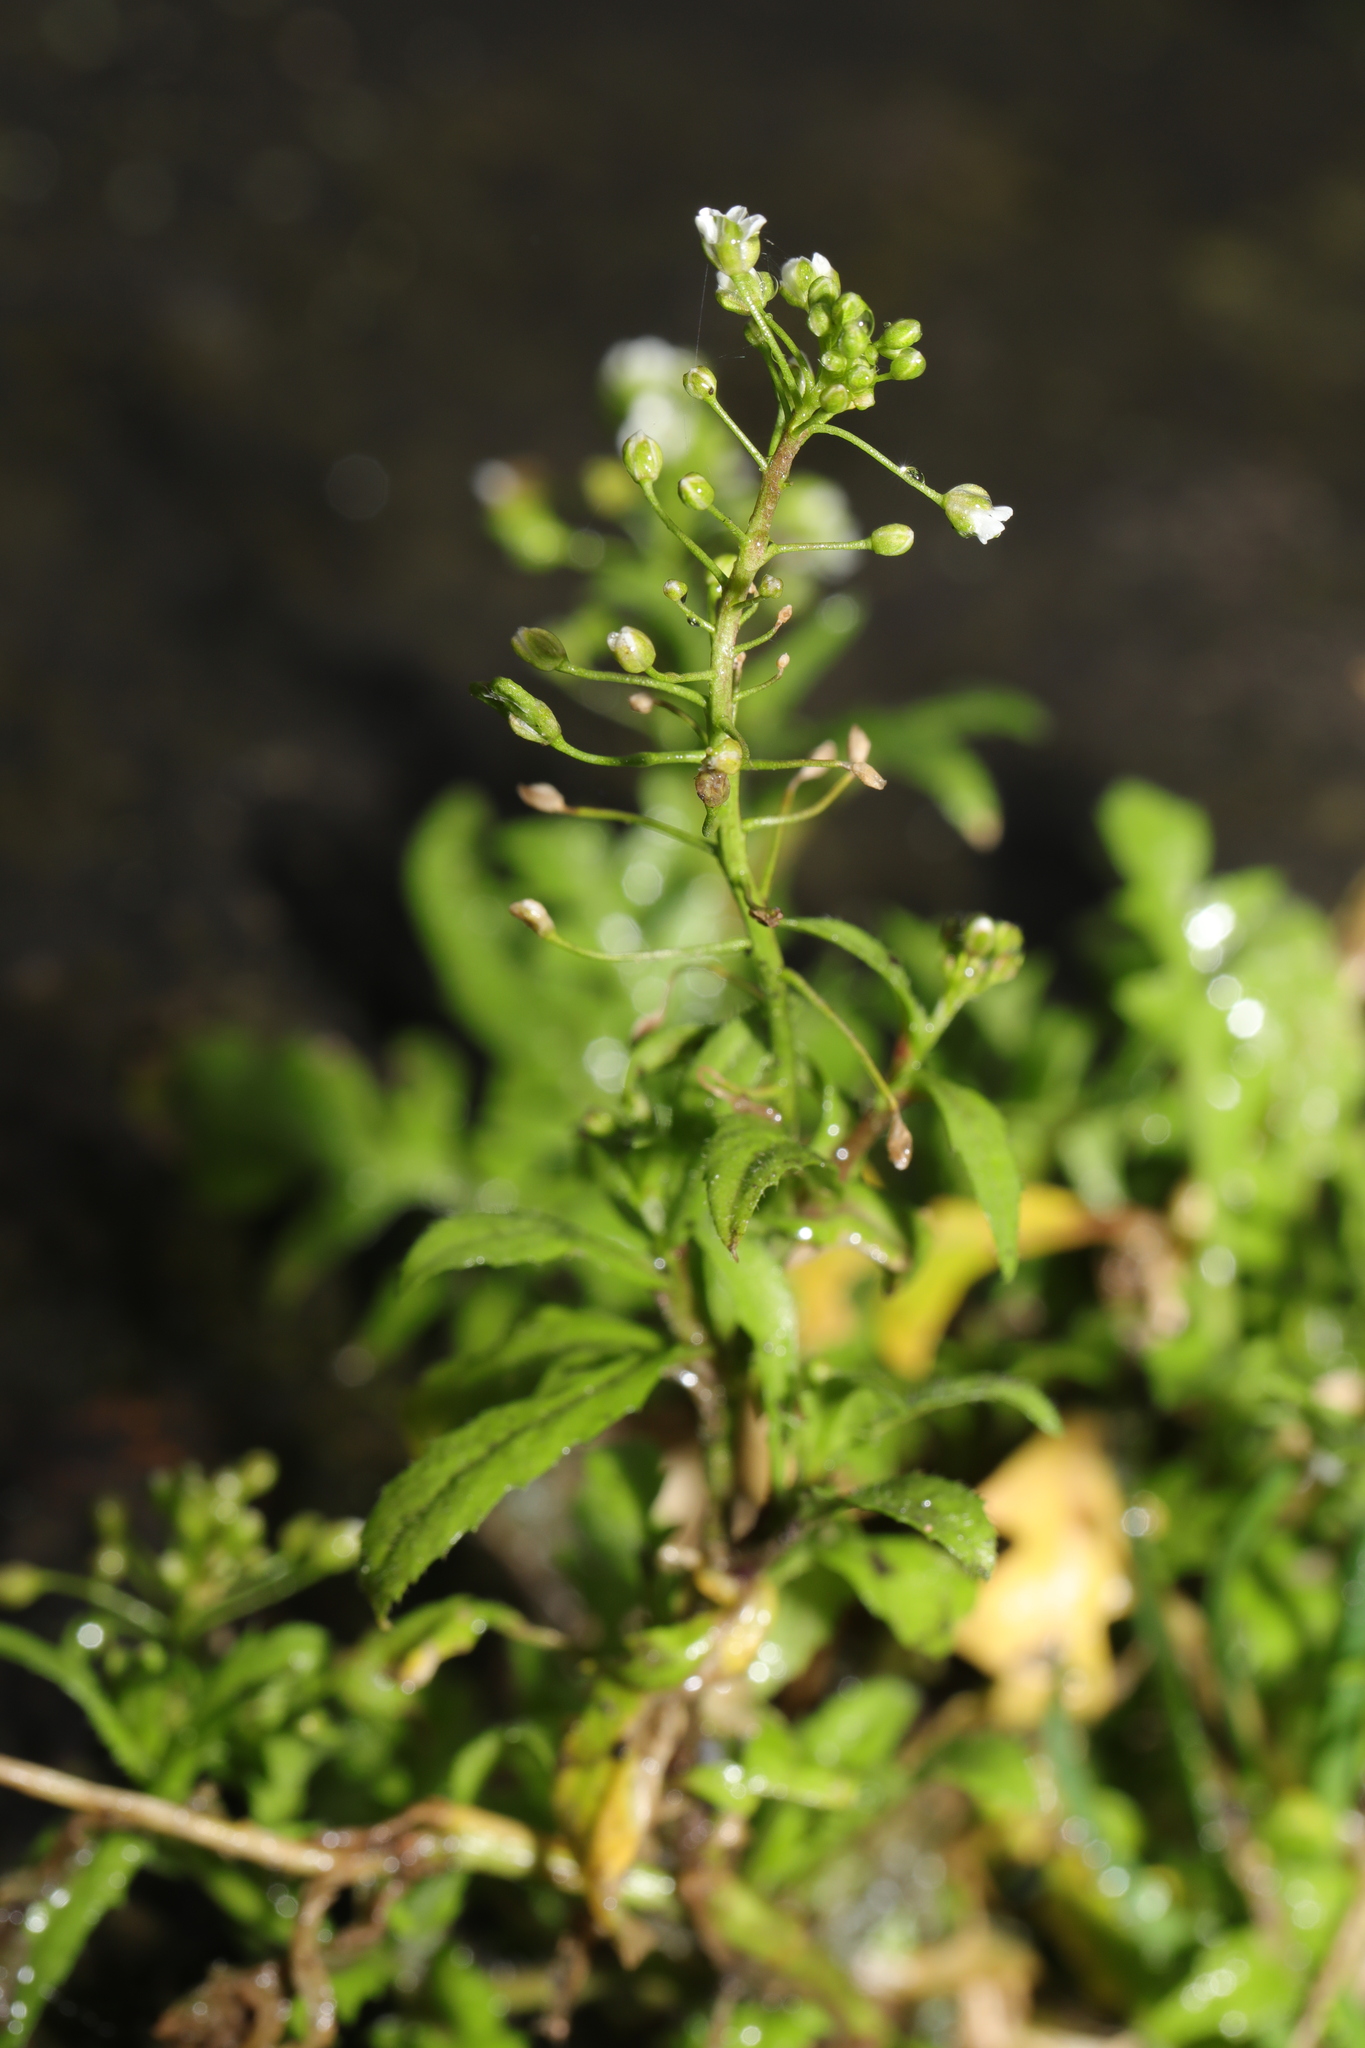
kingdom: Plantae
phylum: Tracheophyta
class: Magnoliopsida
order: Brassicales
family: Brassicaceae
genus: Capsella
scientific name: Capsella bursa-pastoris
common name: Shepherd's purse
